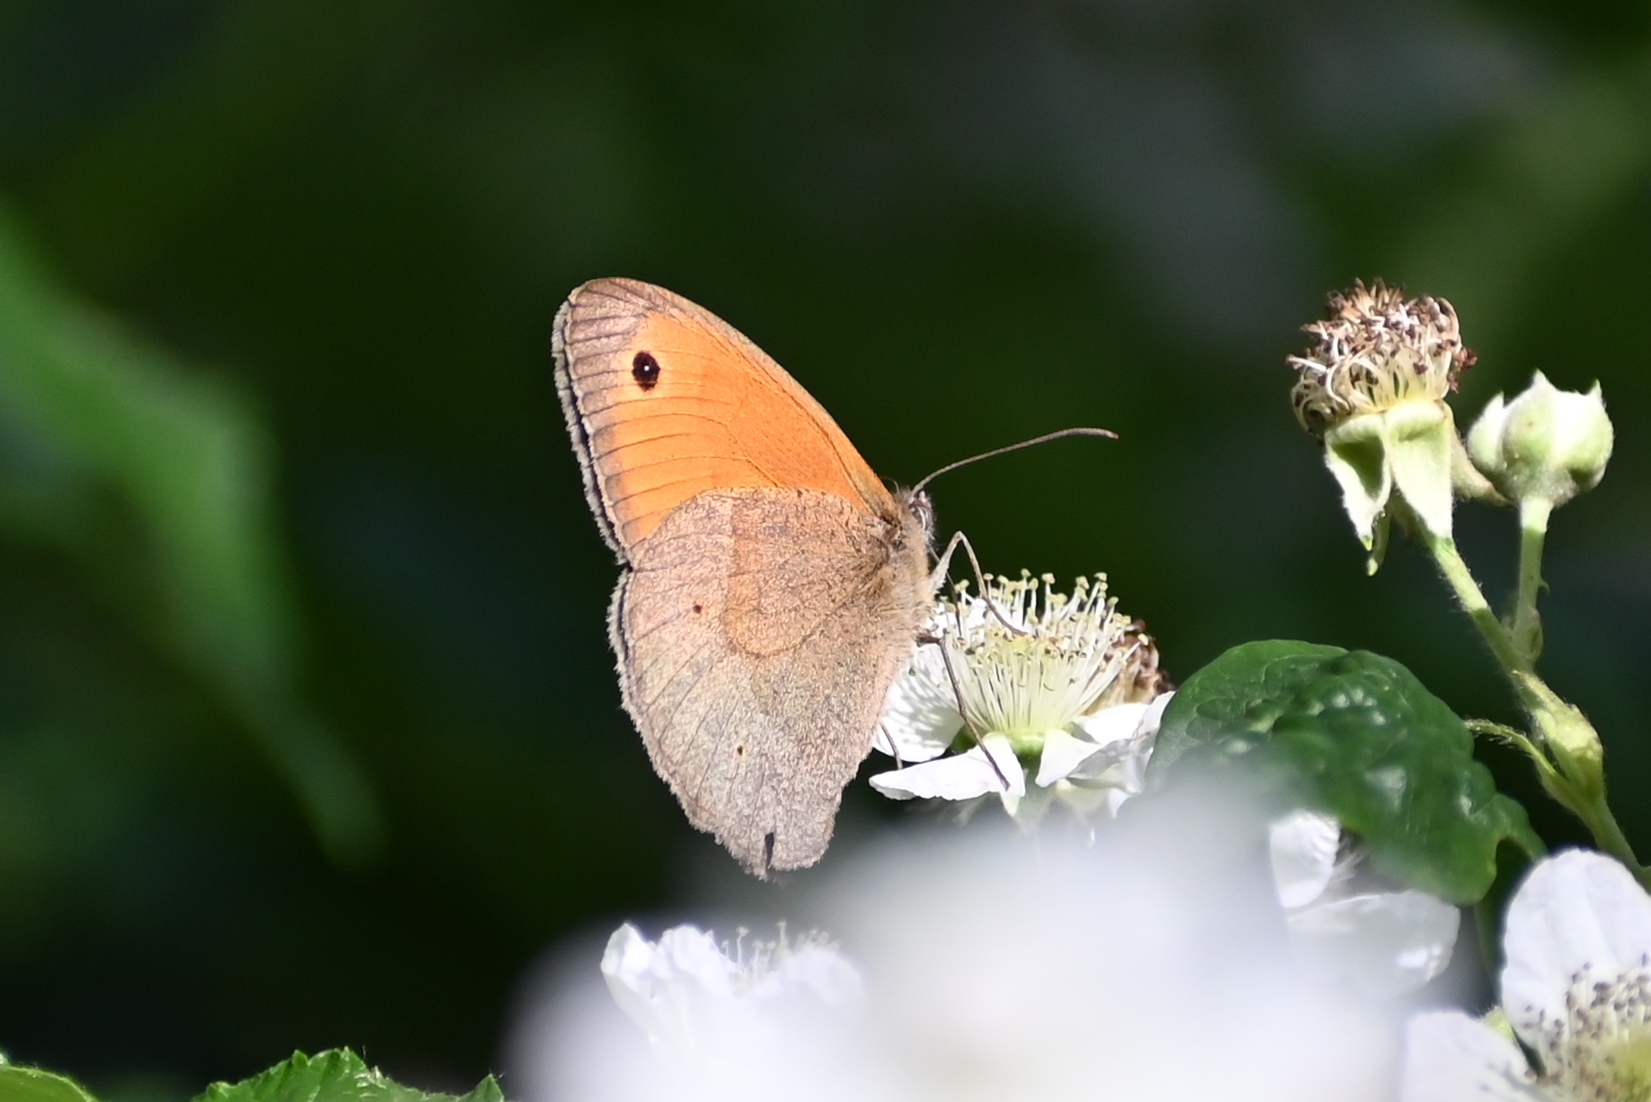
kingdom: Animalia
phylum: Arthropoda
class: Insecta
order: Lepidoptera
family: Nymphalidae
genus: Maniola
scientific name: Maniola jurtina
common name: Meadow brown
